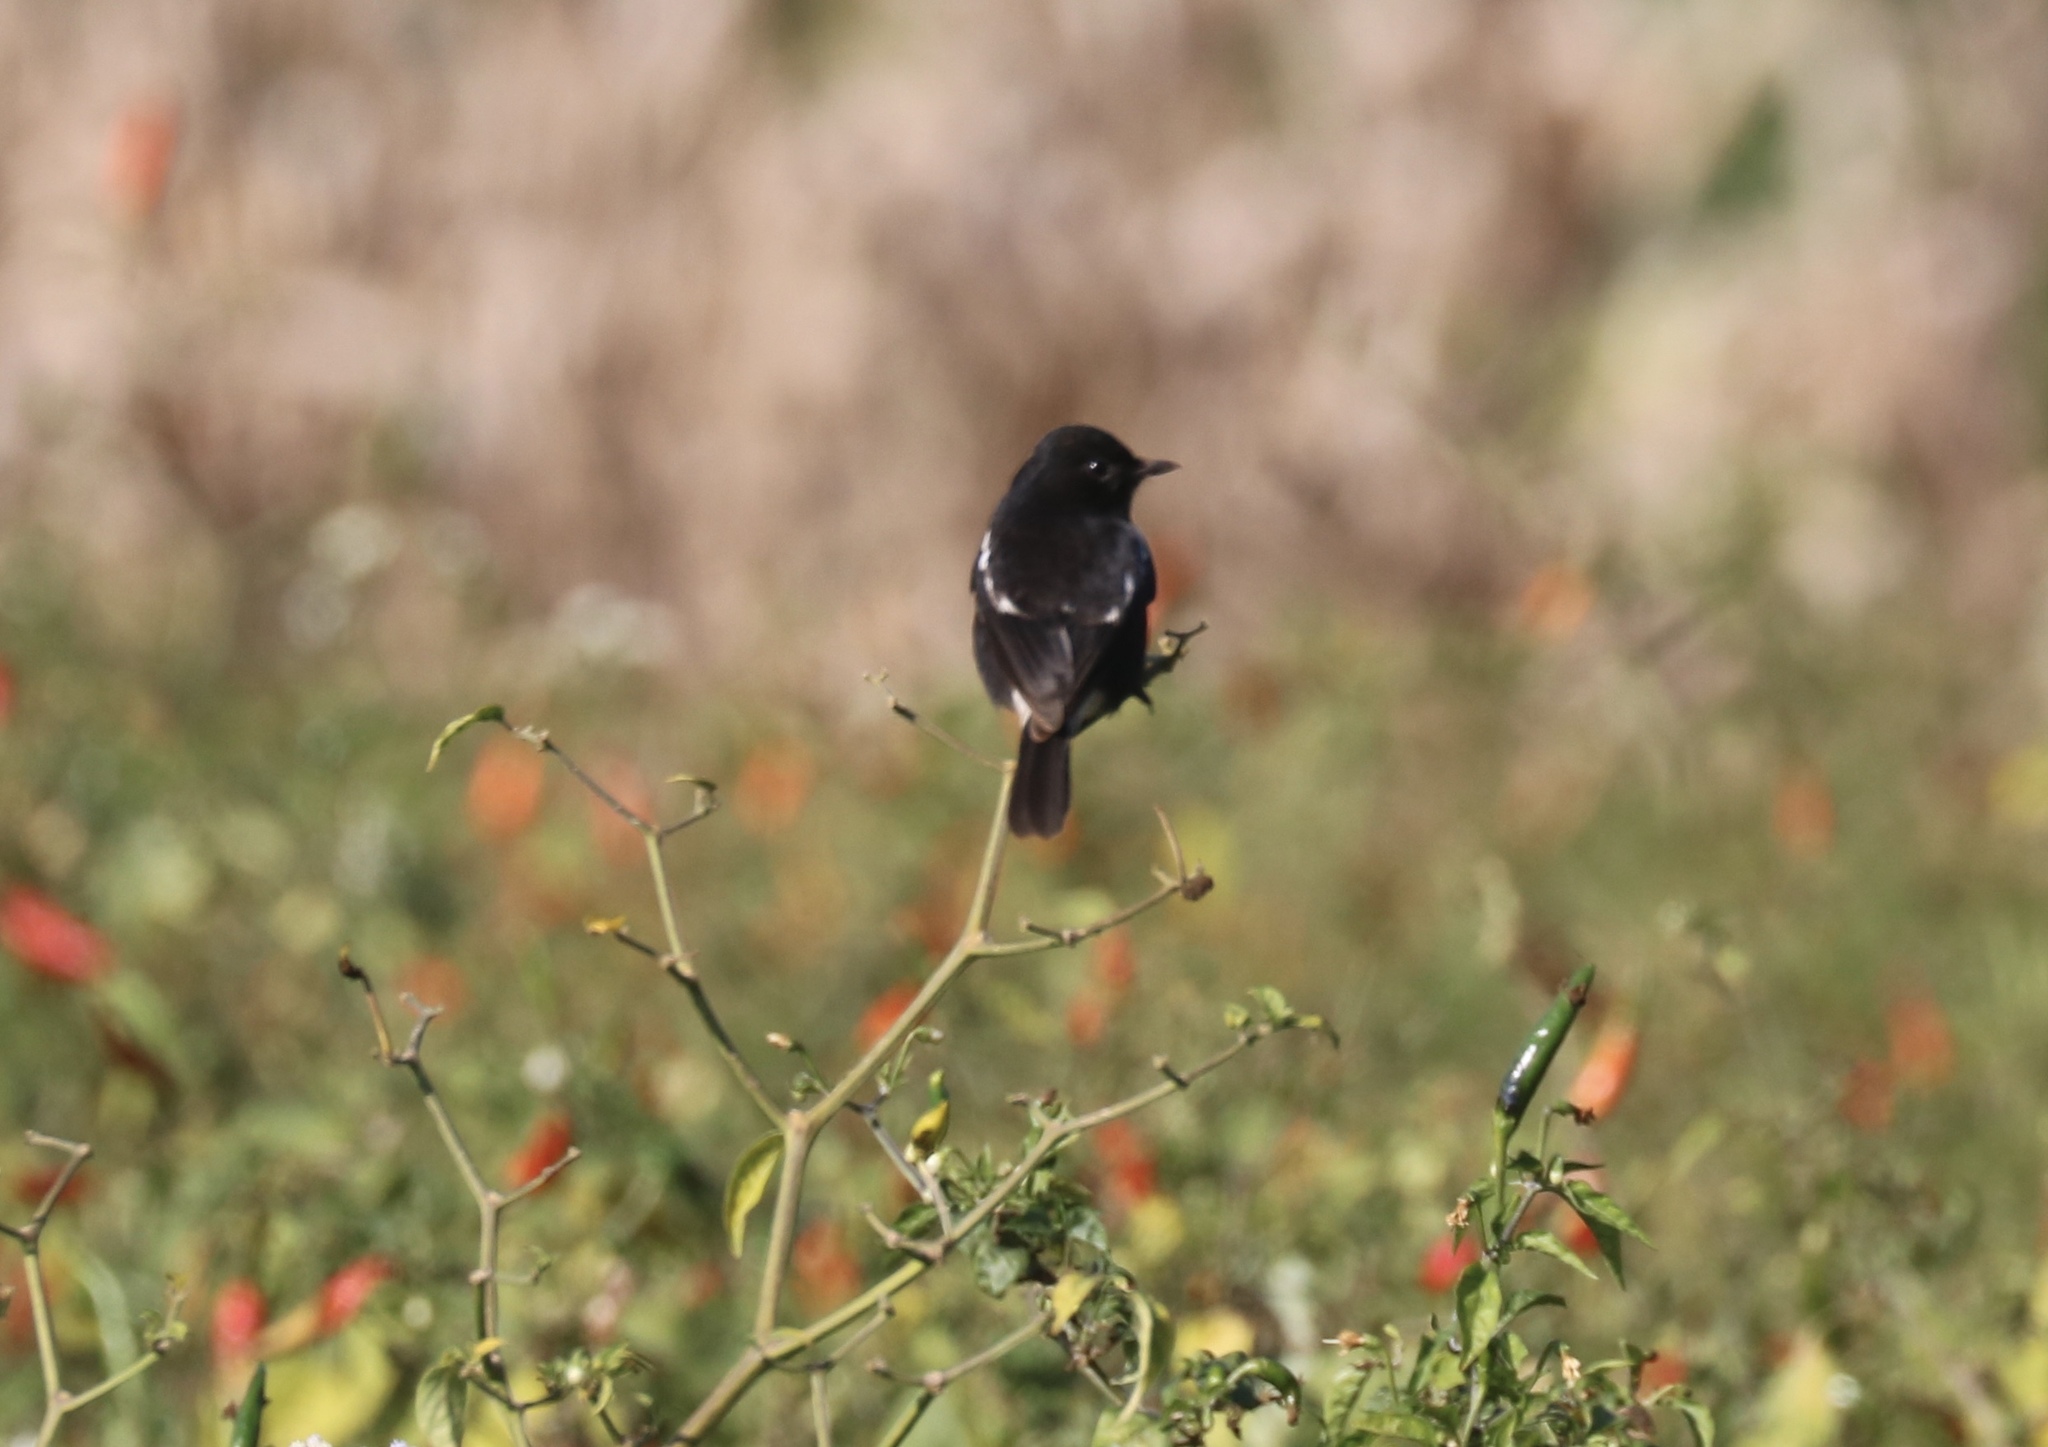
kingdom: Animalia
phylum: Chordata
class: Aves
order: Passeriformes
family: Muscicapidae
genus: Saxicola
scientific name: Saxicola caprata
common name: Pied bush chat
